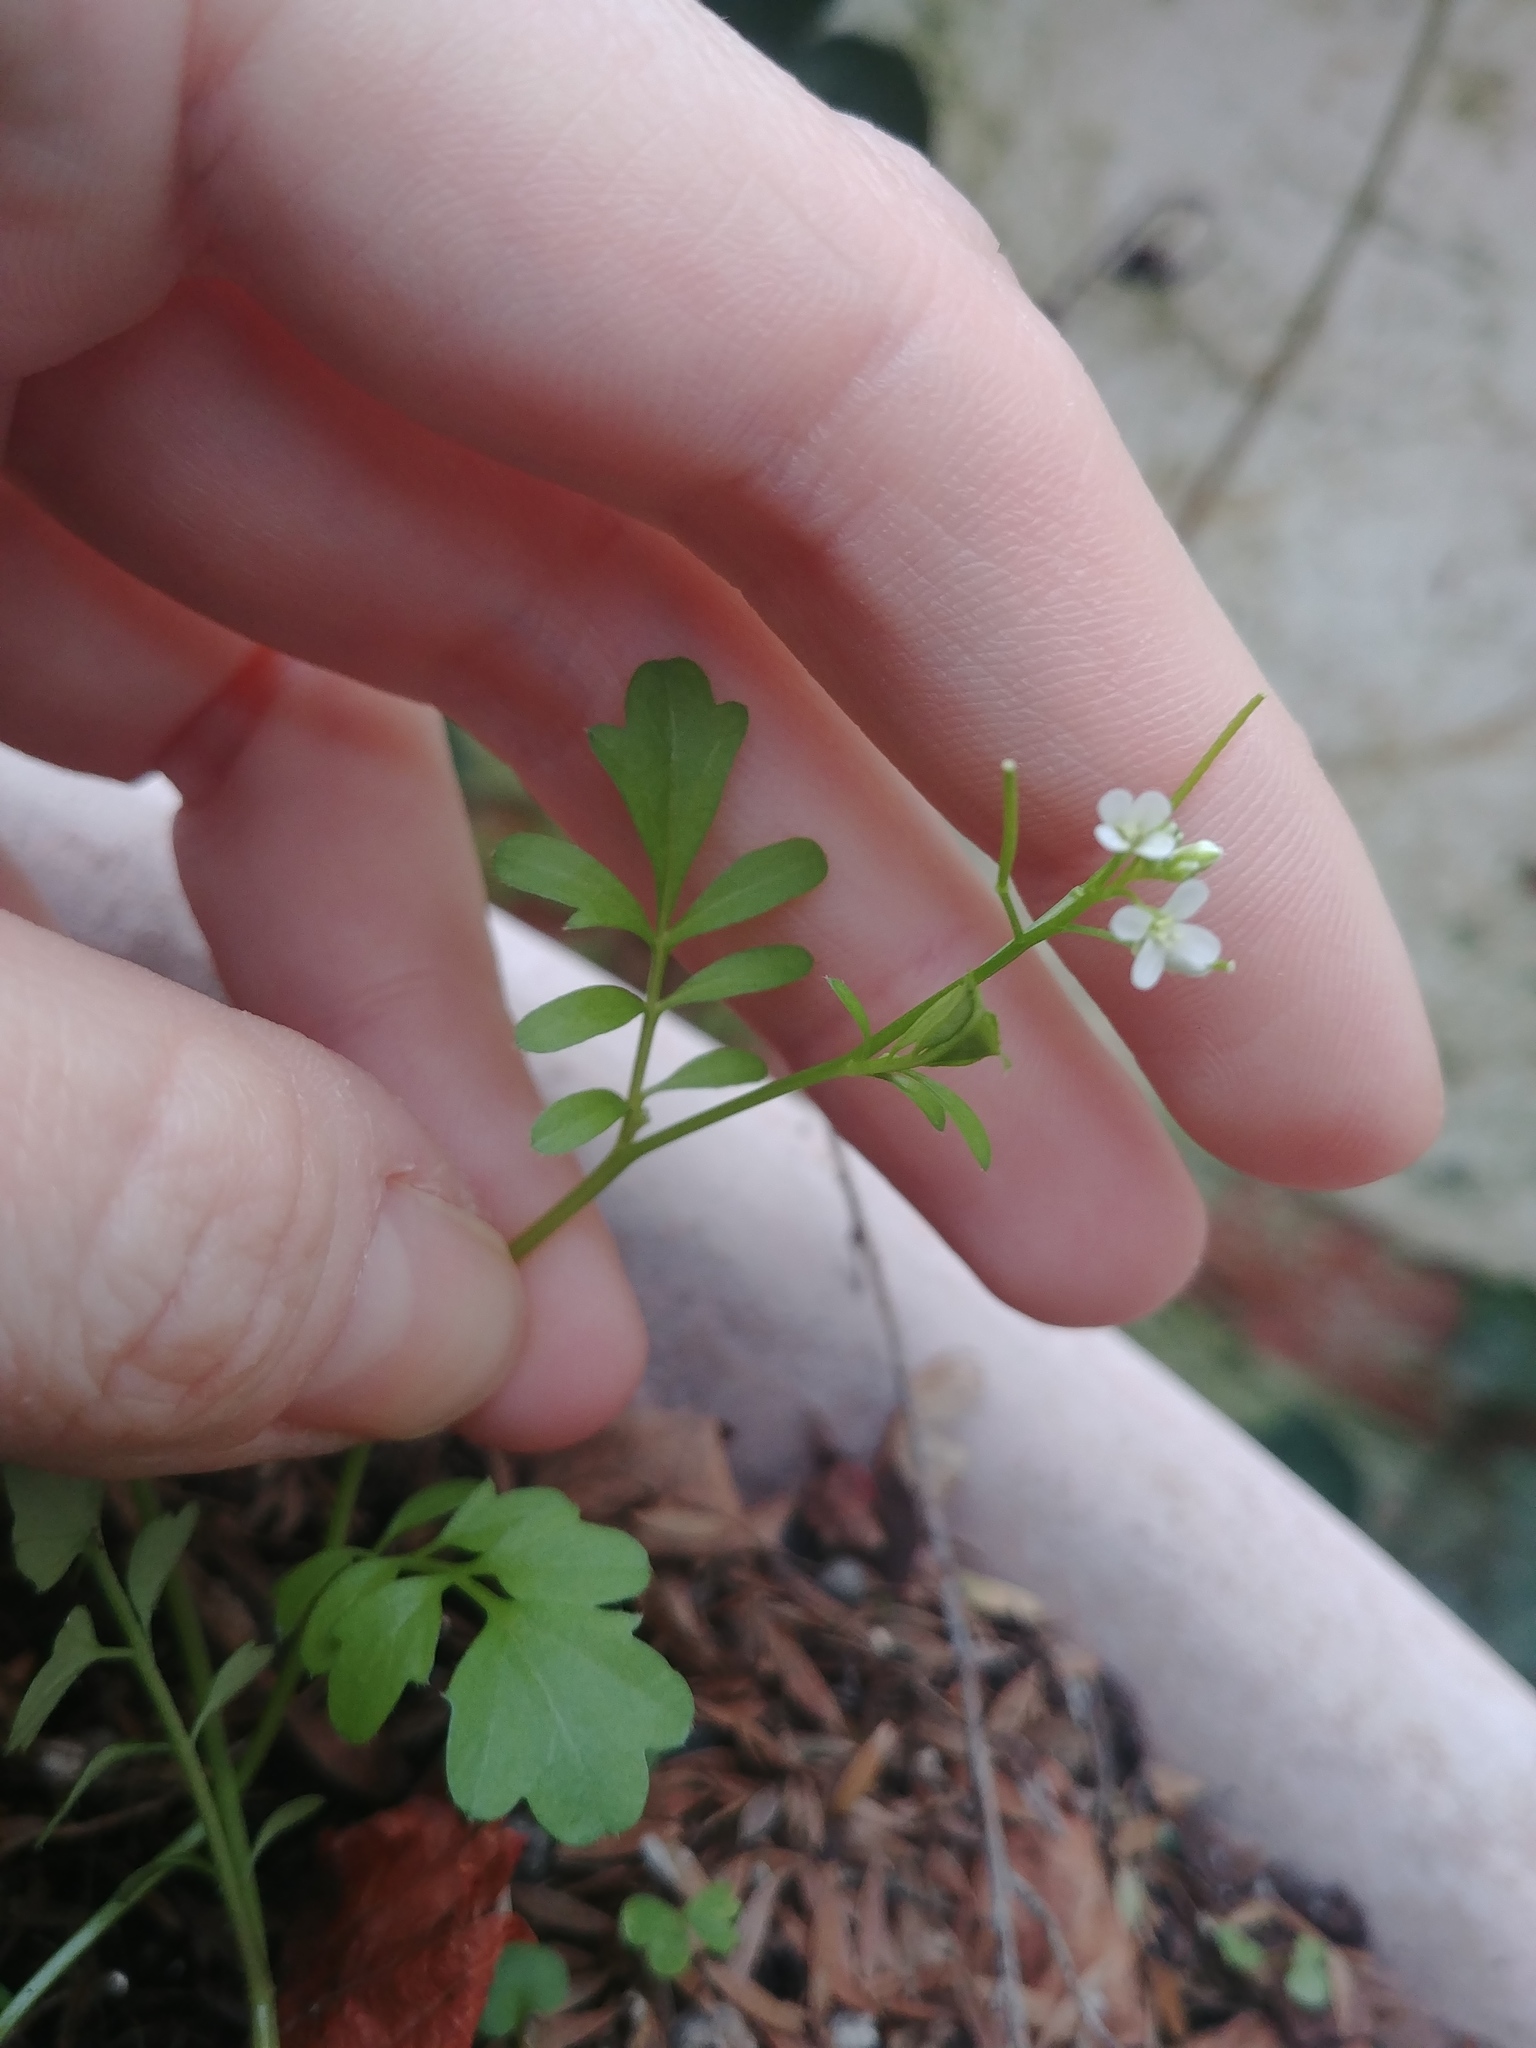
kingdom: Plantae
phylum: Tracheophyta
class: Magnoliopsida
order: Brassicales
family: Brassicaceae
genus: Cardamine
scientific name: Cardamine hirsuta
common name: Hairy bittercress
